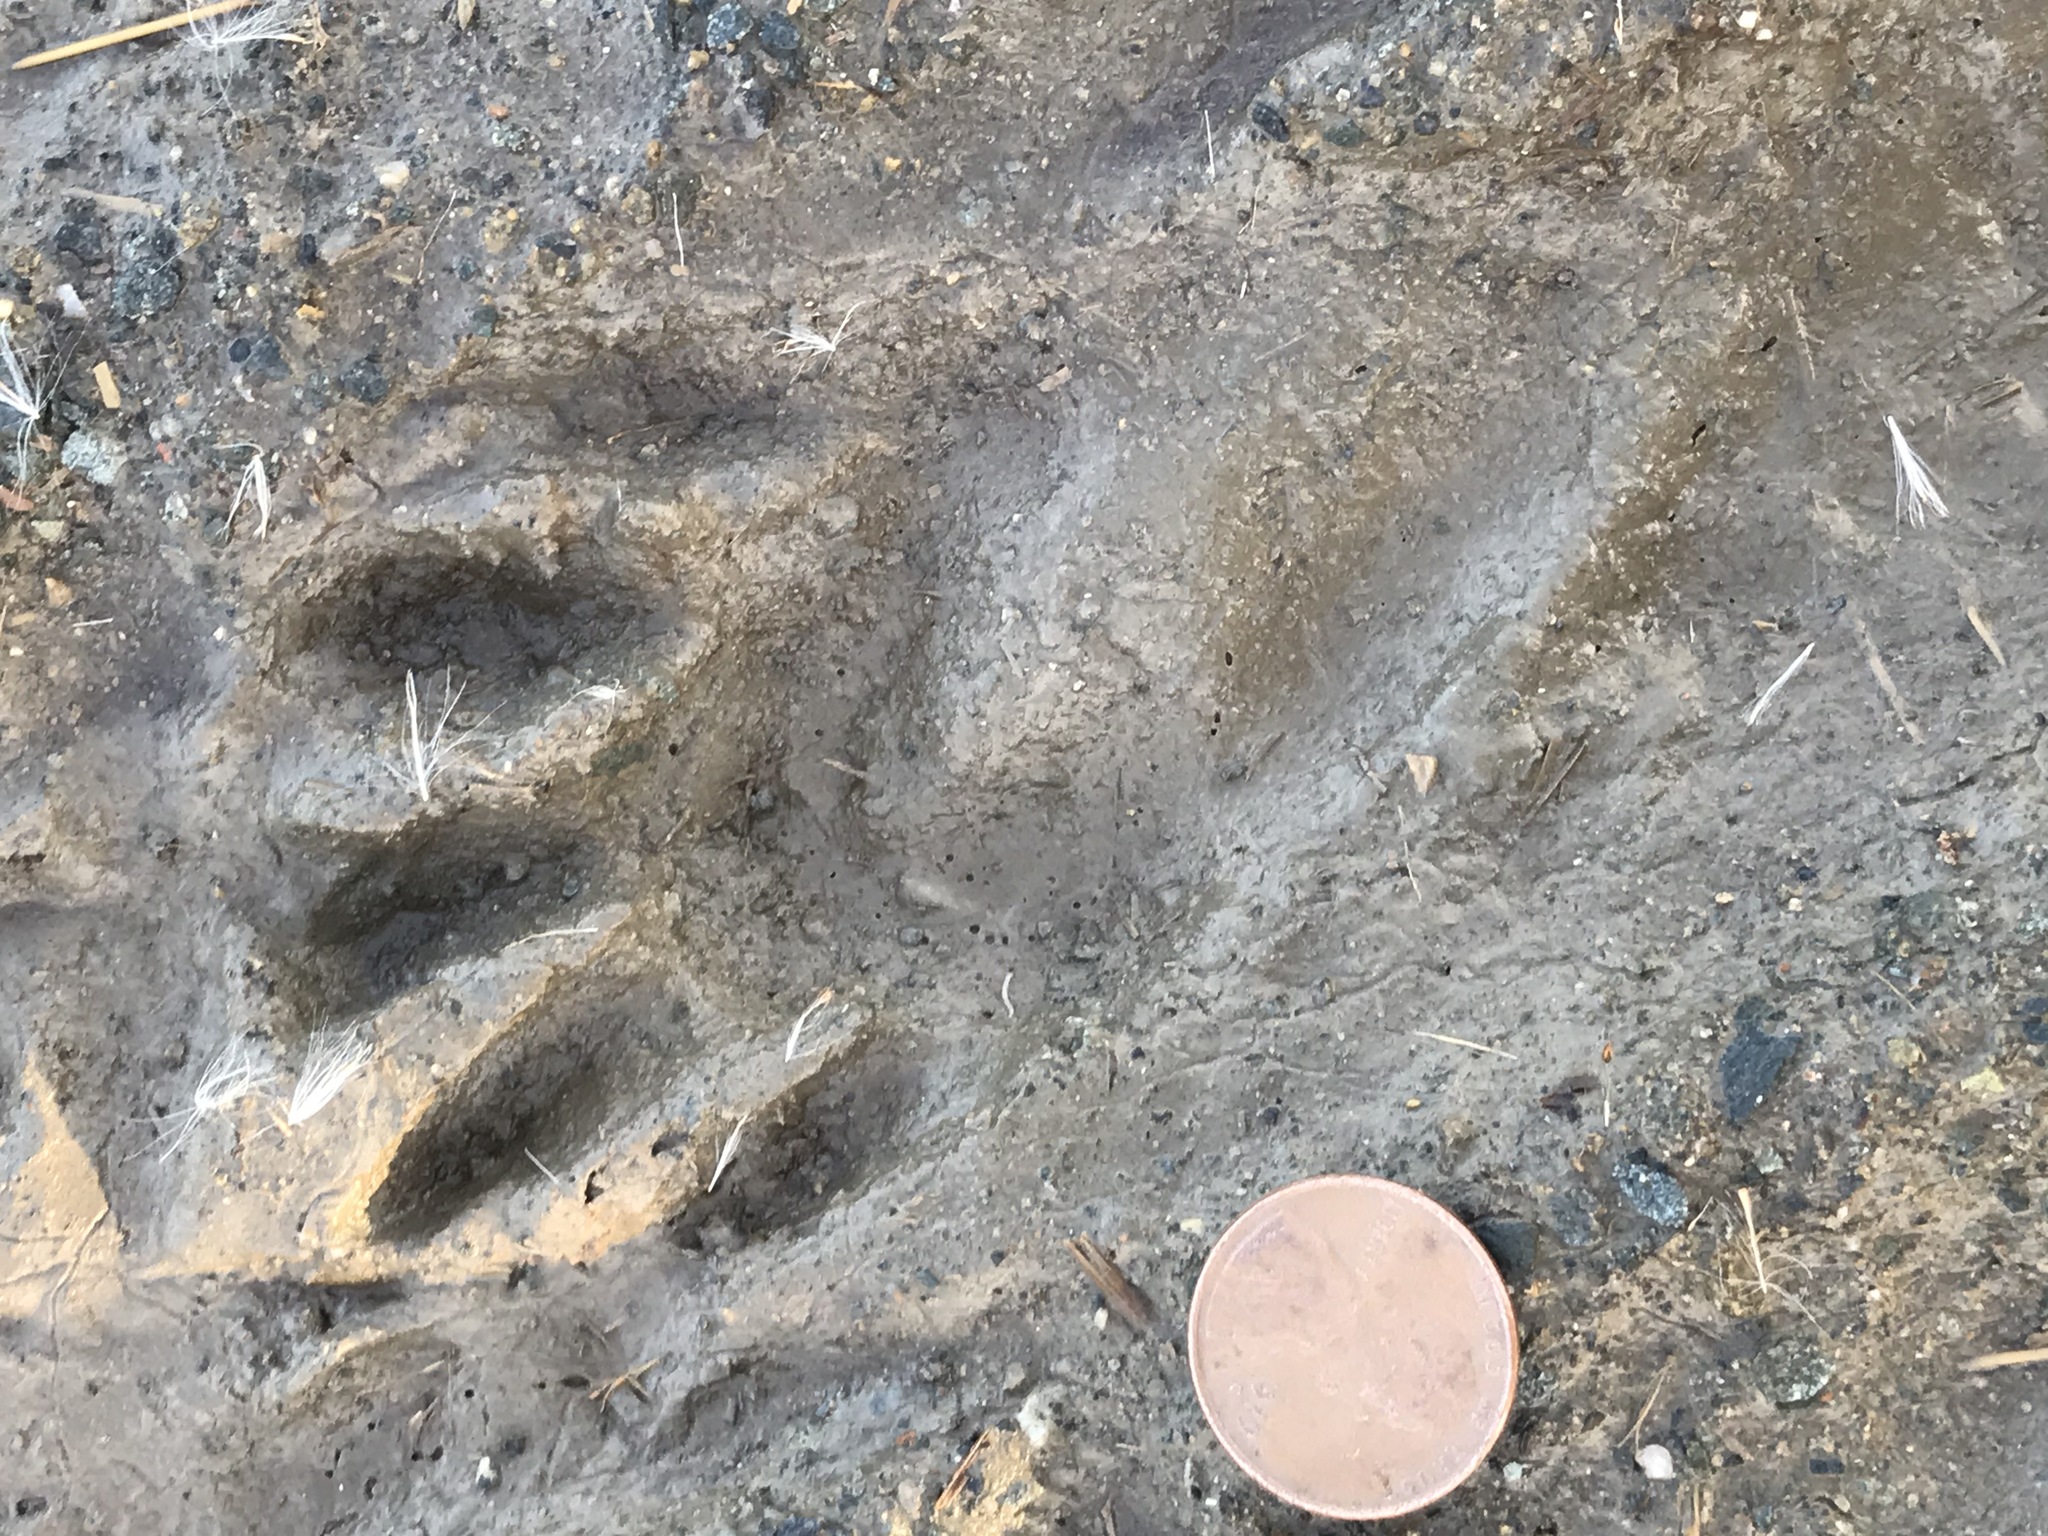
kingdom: Animalia
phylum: Chordata
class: Mammalia
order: Carnivora
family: Procyonidae
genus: Procyon
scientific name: Procyon lotor
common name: Raccoon
